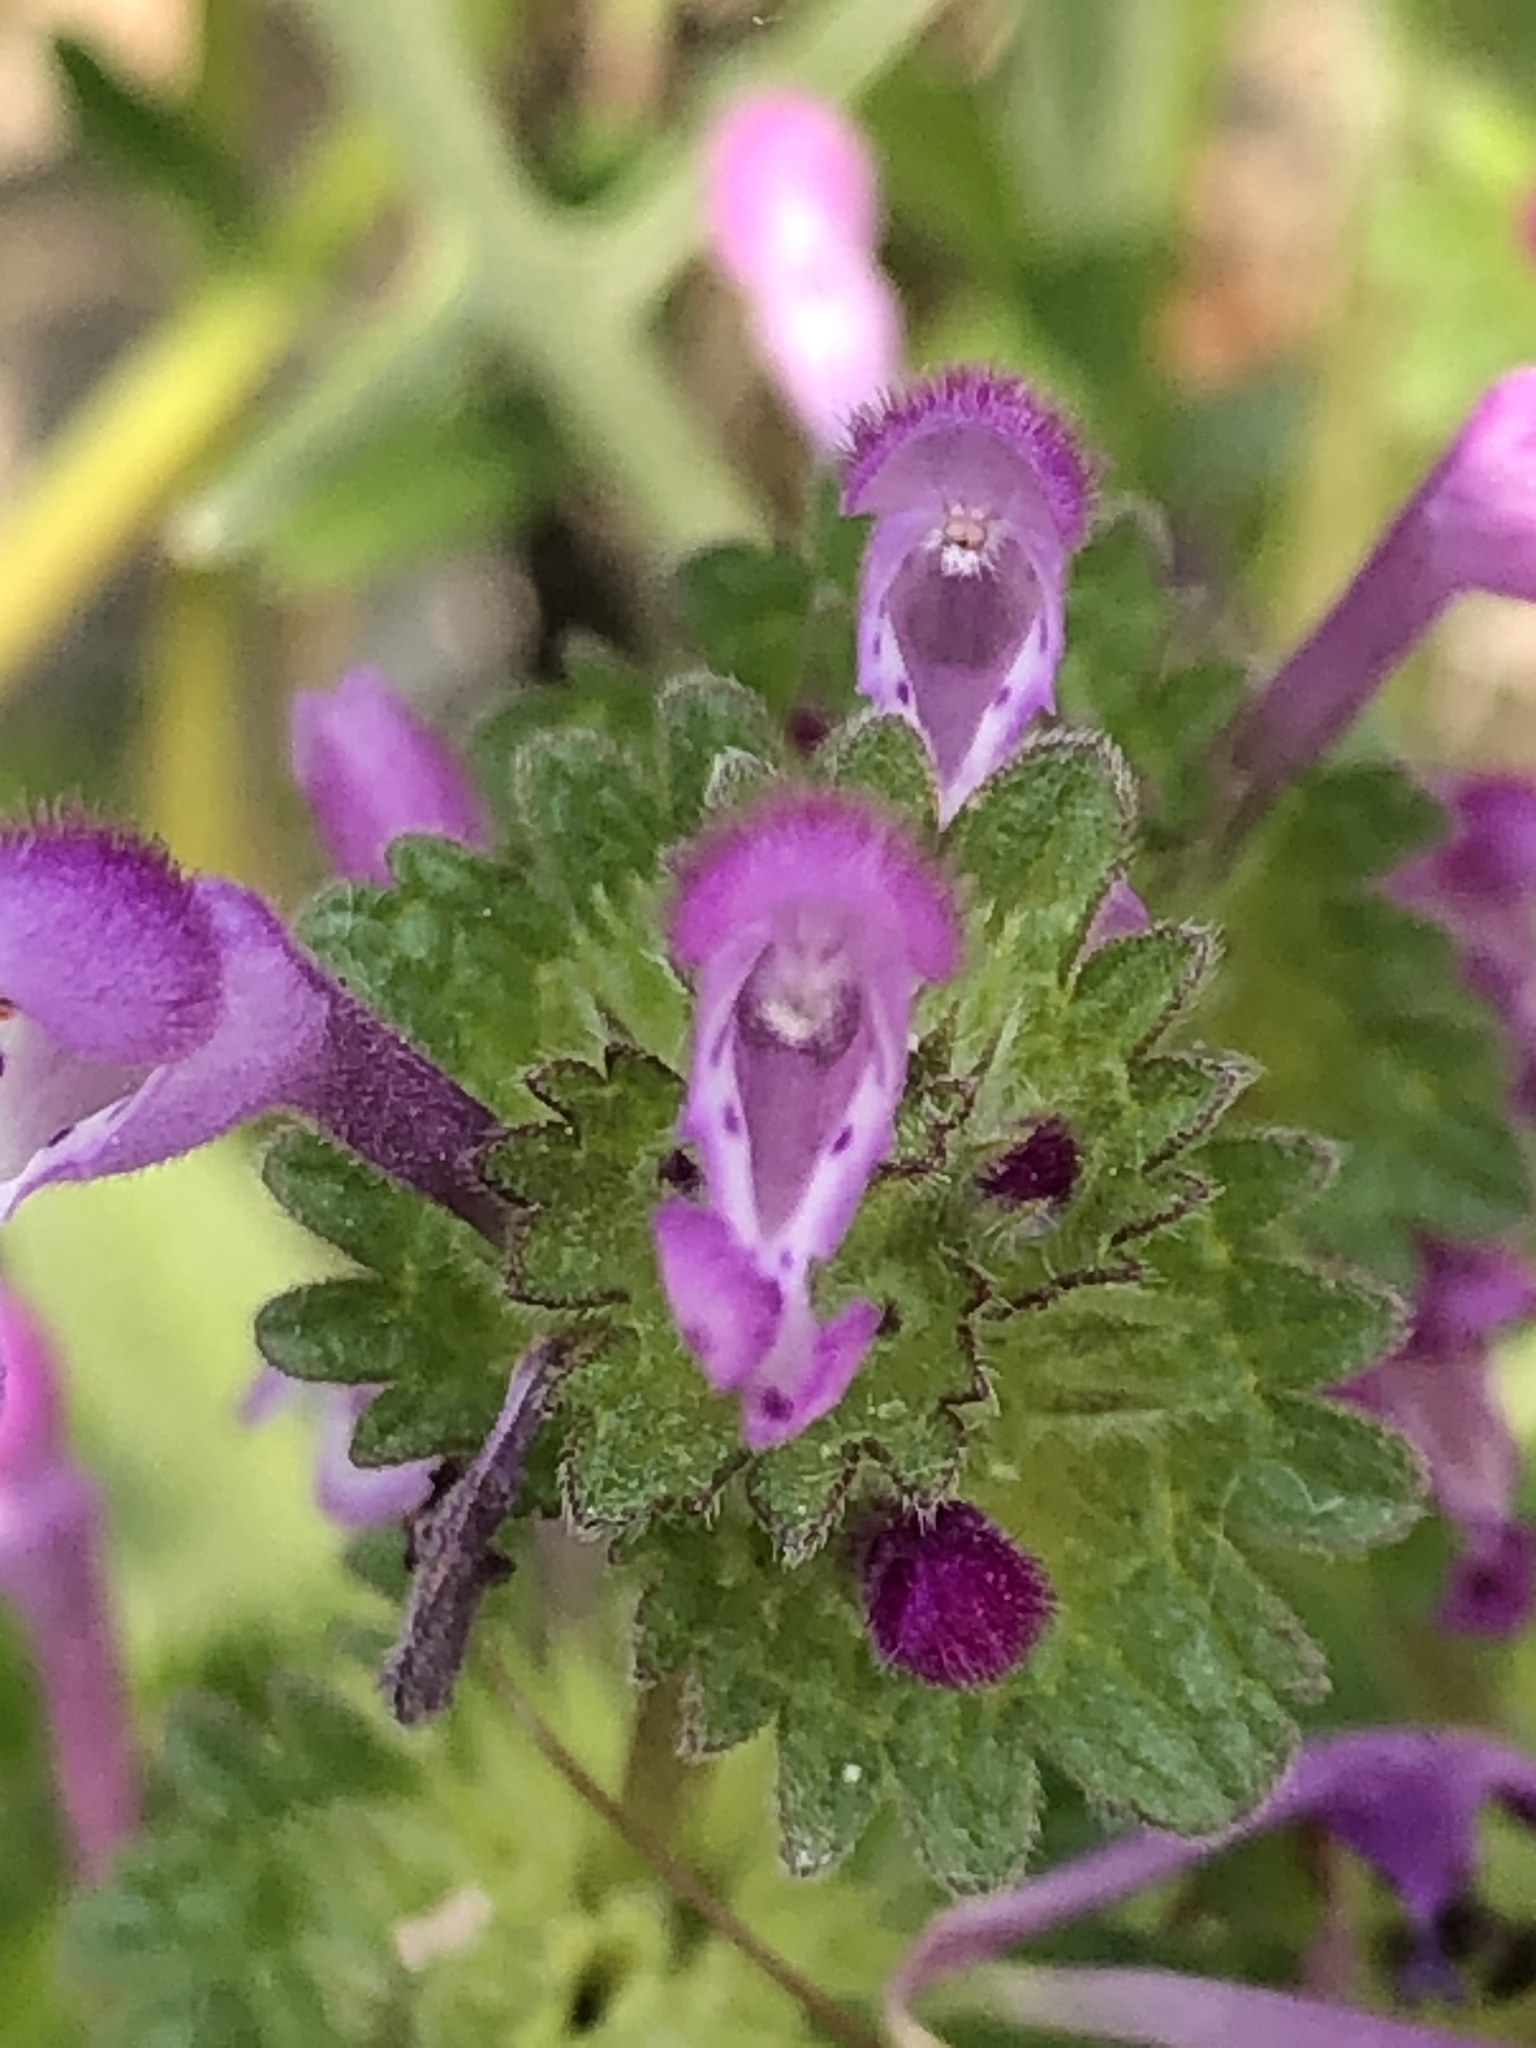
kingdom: Plantae
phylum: Tracheophyta
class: Magnoliopsida
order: Lamiales
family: Lamiaceae
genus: Lamium
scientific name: Lamium amplexicaule
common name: Henbit dead-nettle
